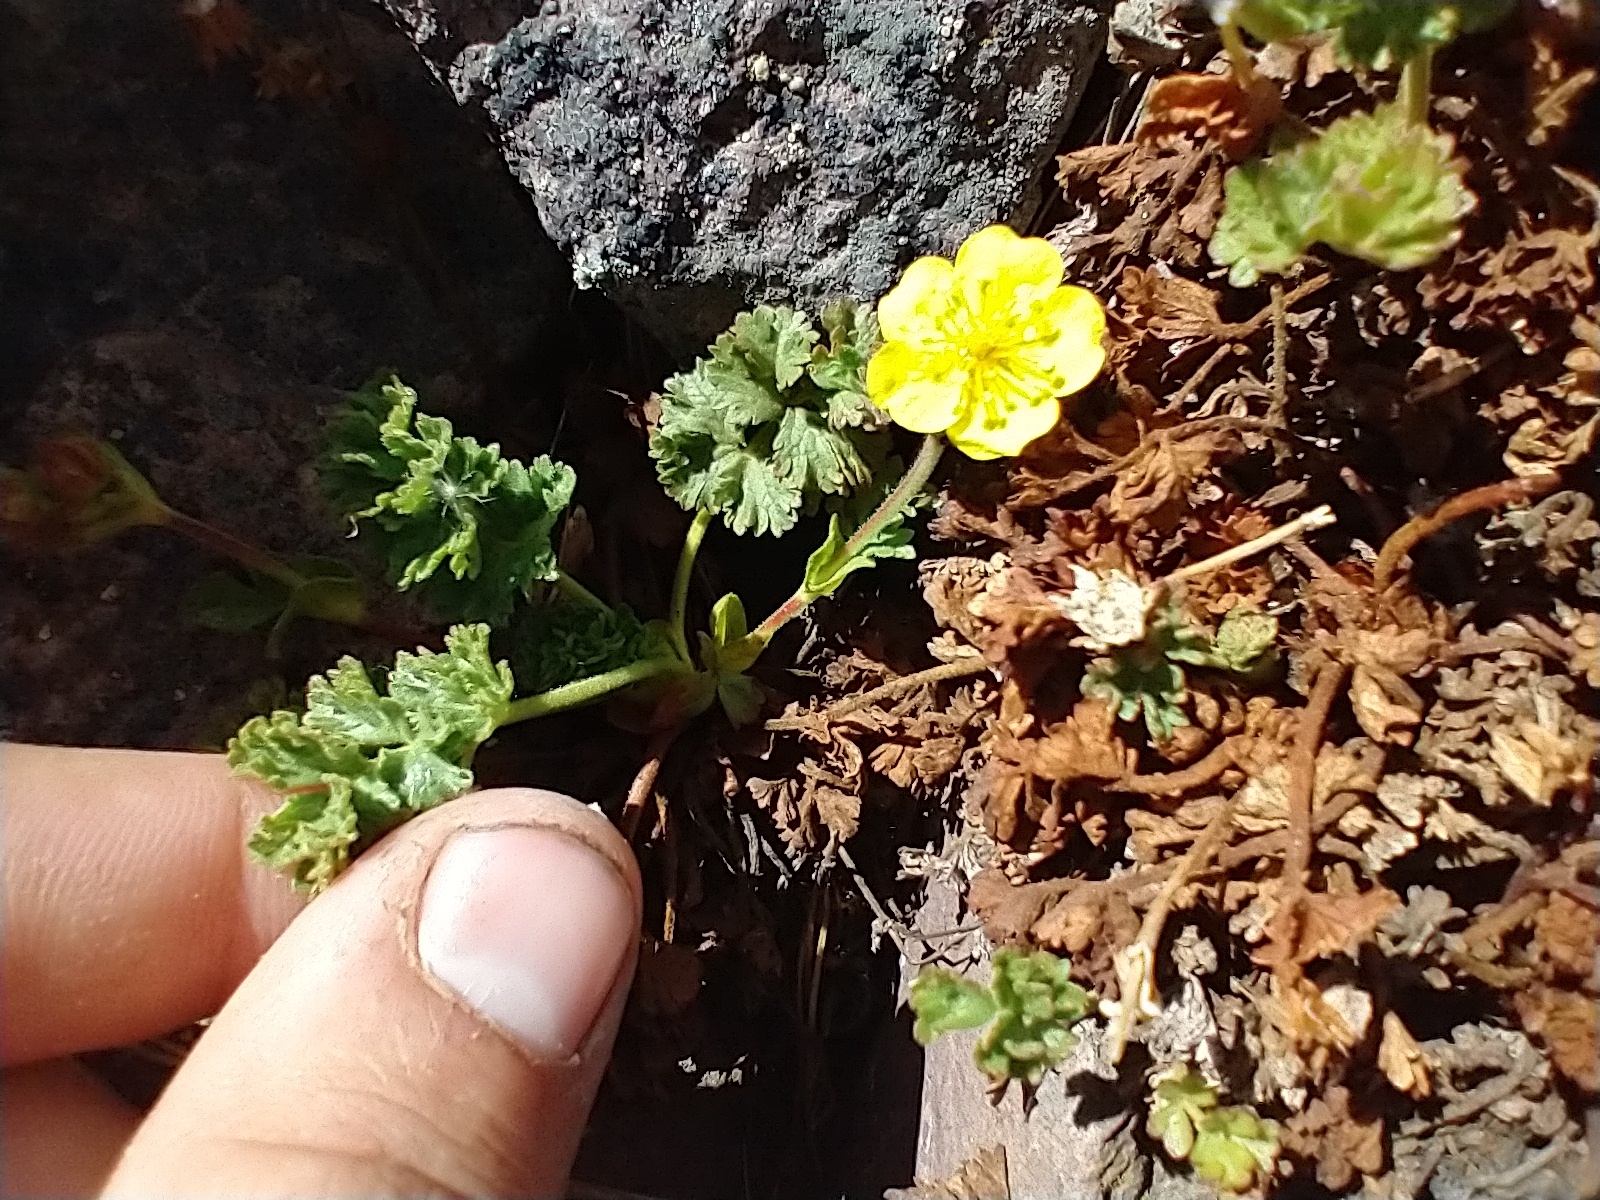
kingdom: Plantae
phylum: Tracheophyta
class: Magnoliopsida
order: Rosales
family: Rosaceae
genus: Potentilla
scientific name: Potentilla brevifolia
